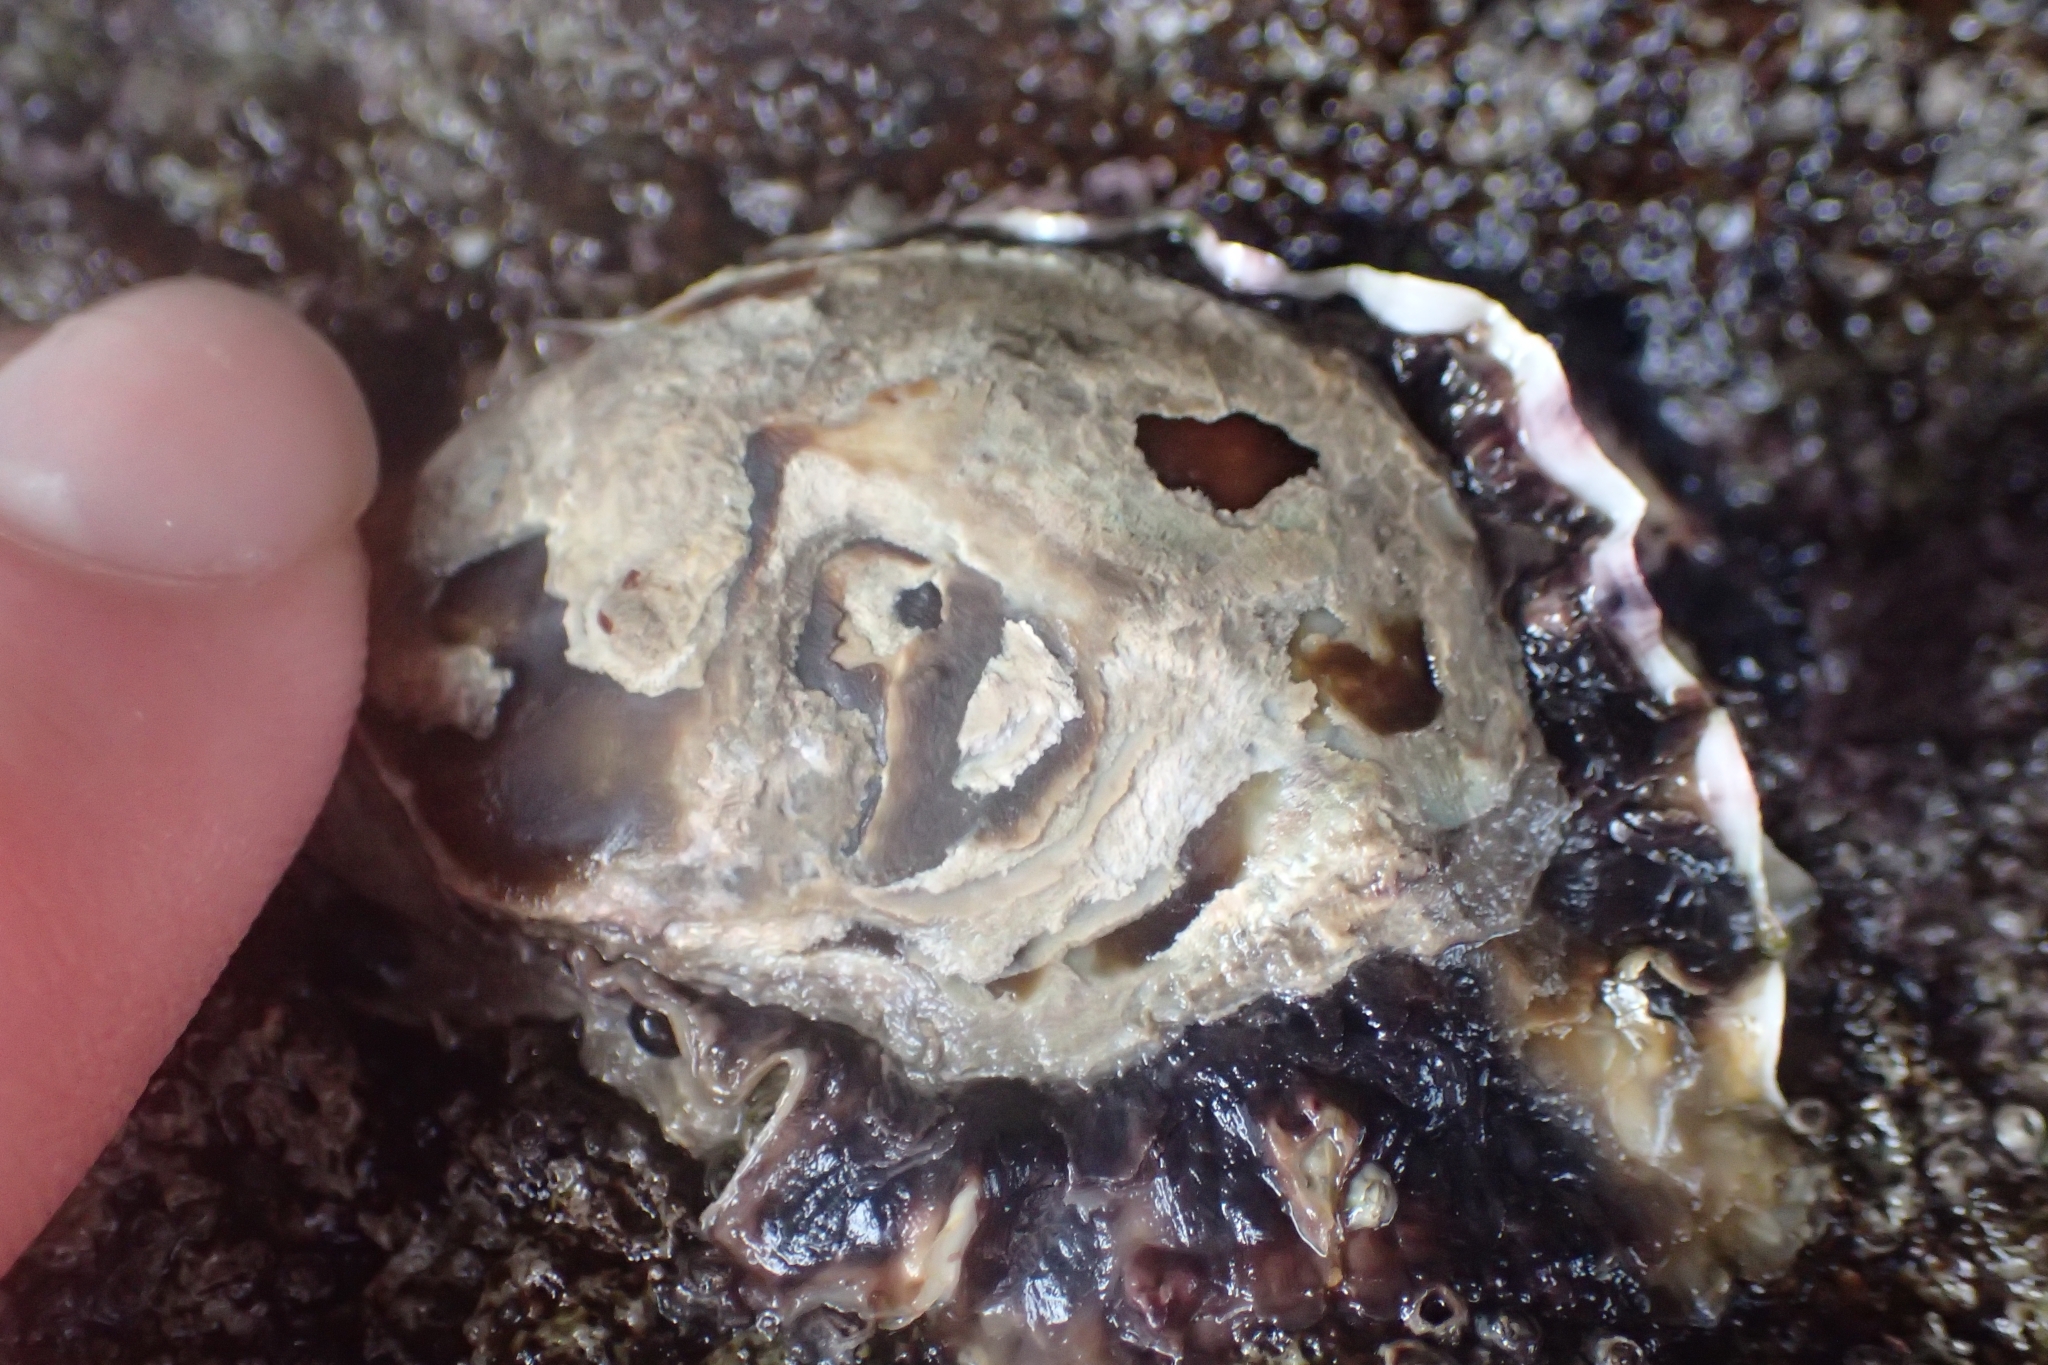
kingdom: Animalia
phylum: Mollusca
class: Bivalvia
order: Ostreida
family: Ostreidae
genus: Saccostrea
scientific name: Saccostrea glomerata
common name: Sydney cupped oyster
